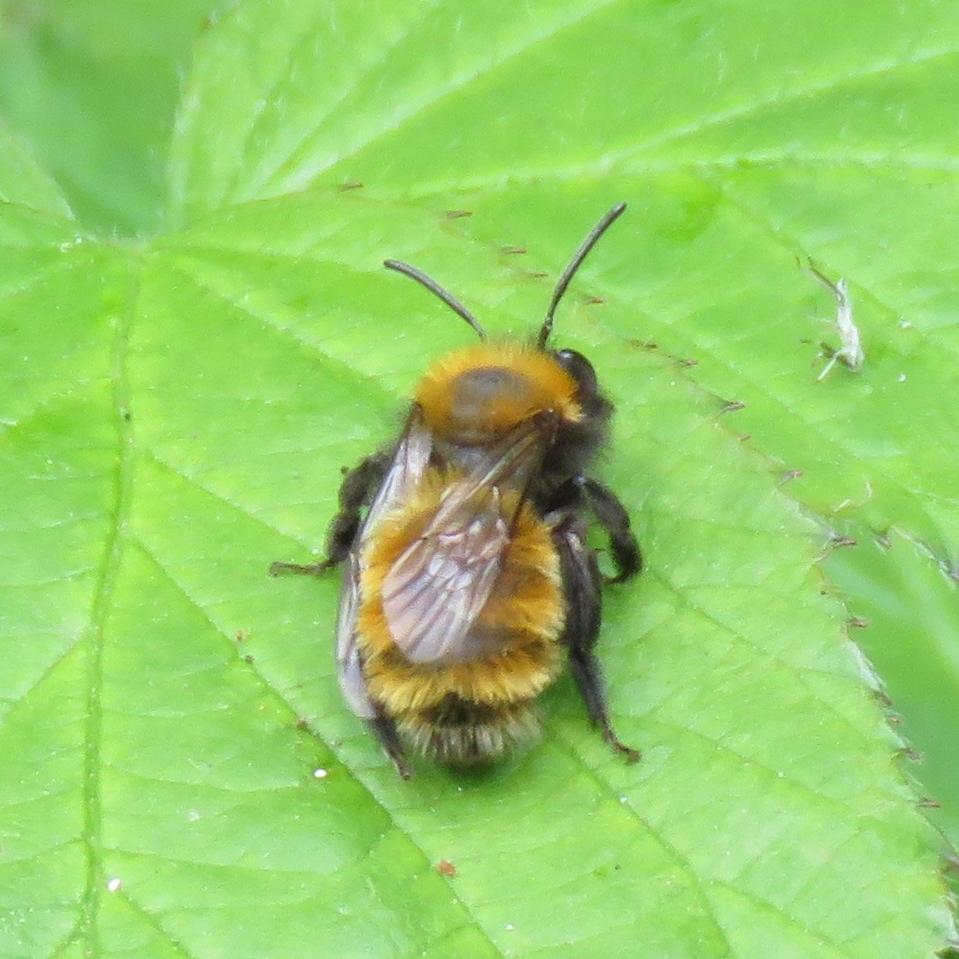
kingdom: Animalia
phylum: Arthropoda
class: Insecta
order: Hymenoptera
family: Andrenidae
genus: Andrena
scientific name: Andrena fulva
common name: Tawny mining bee
